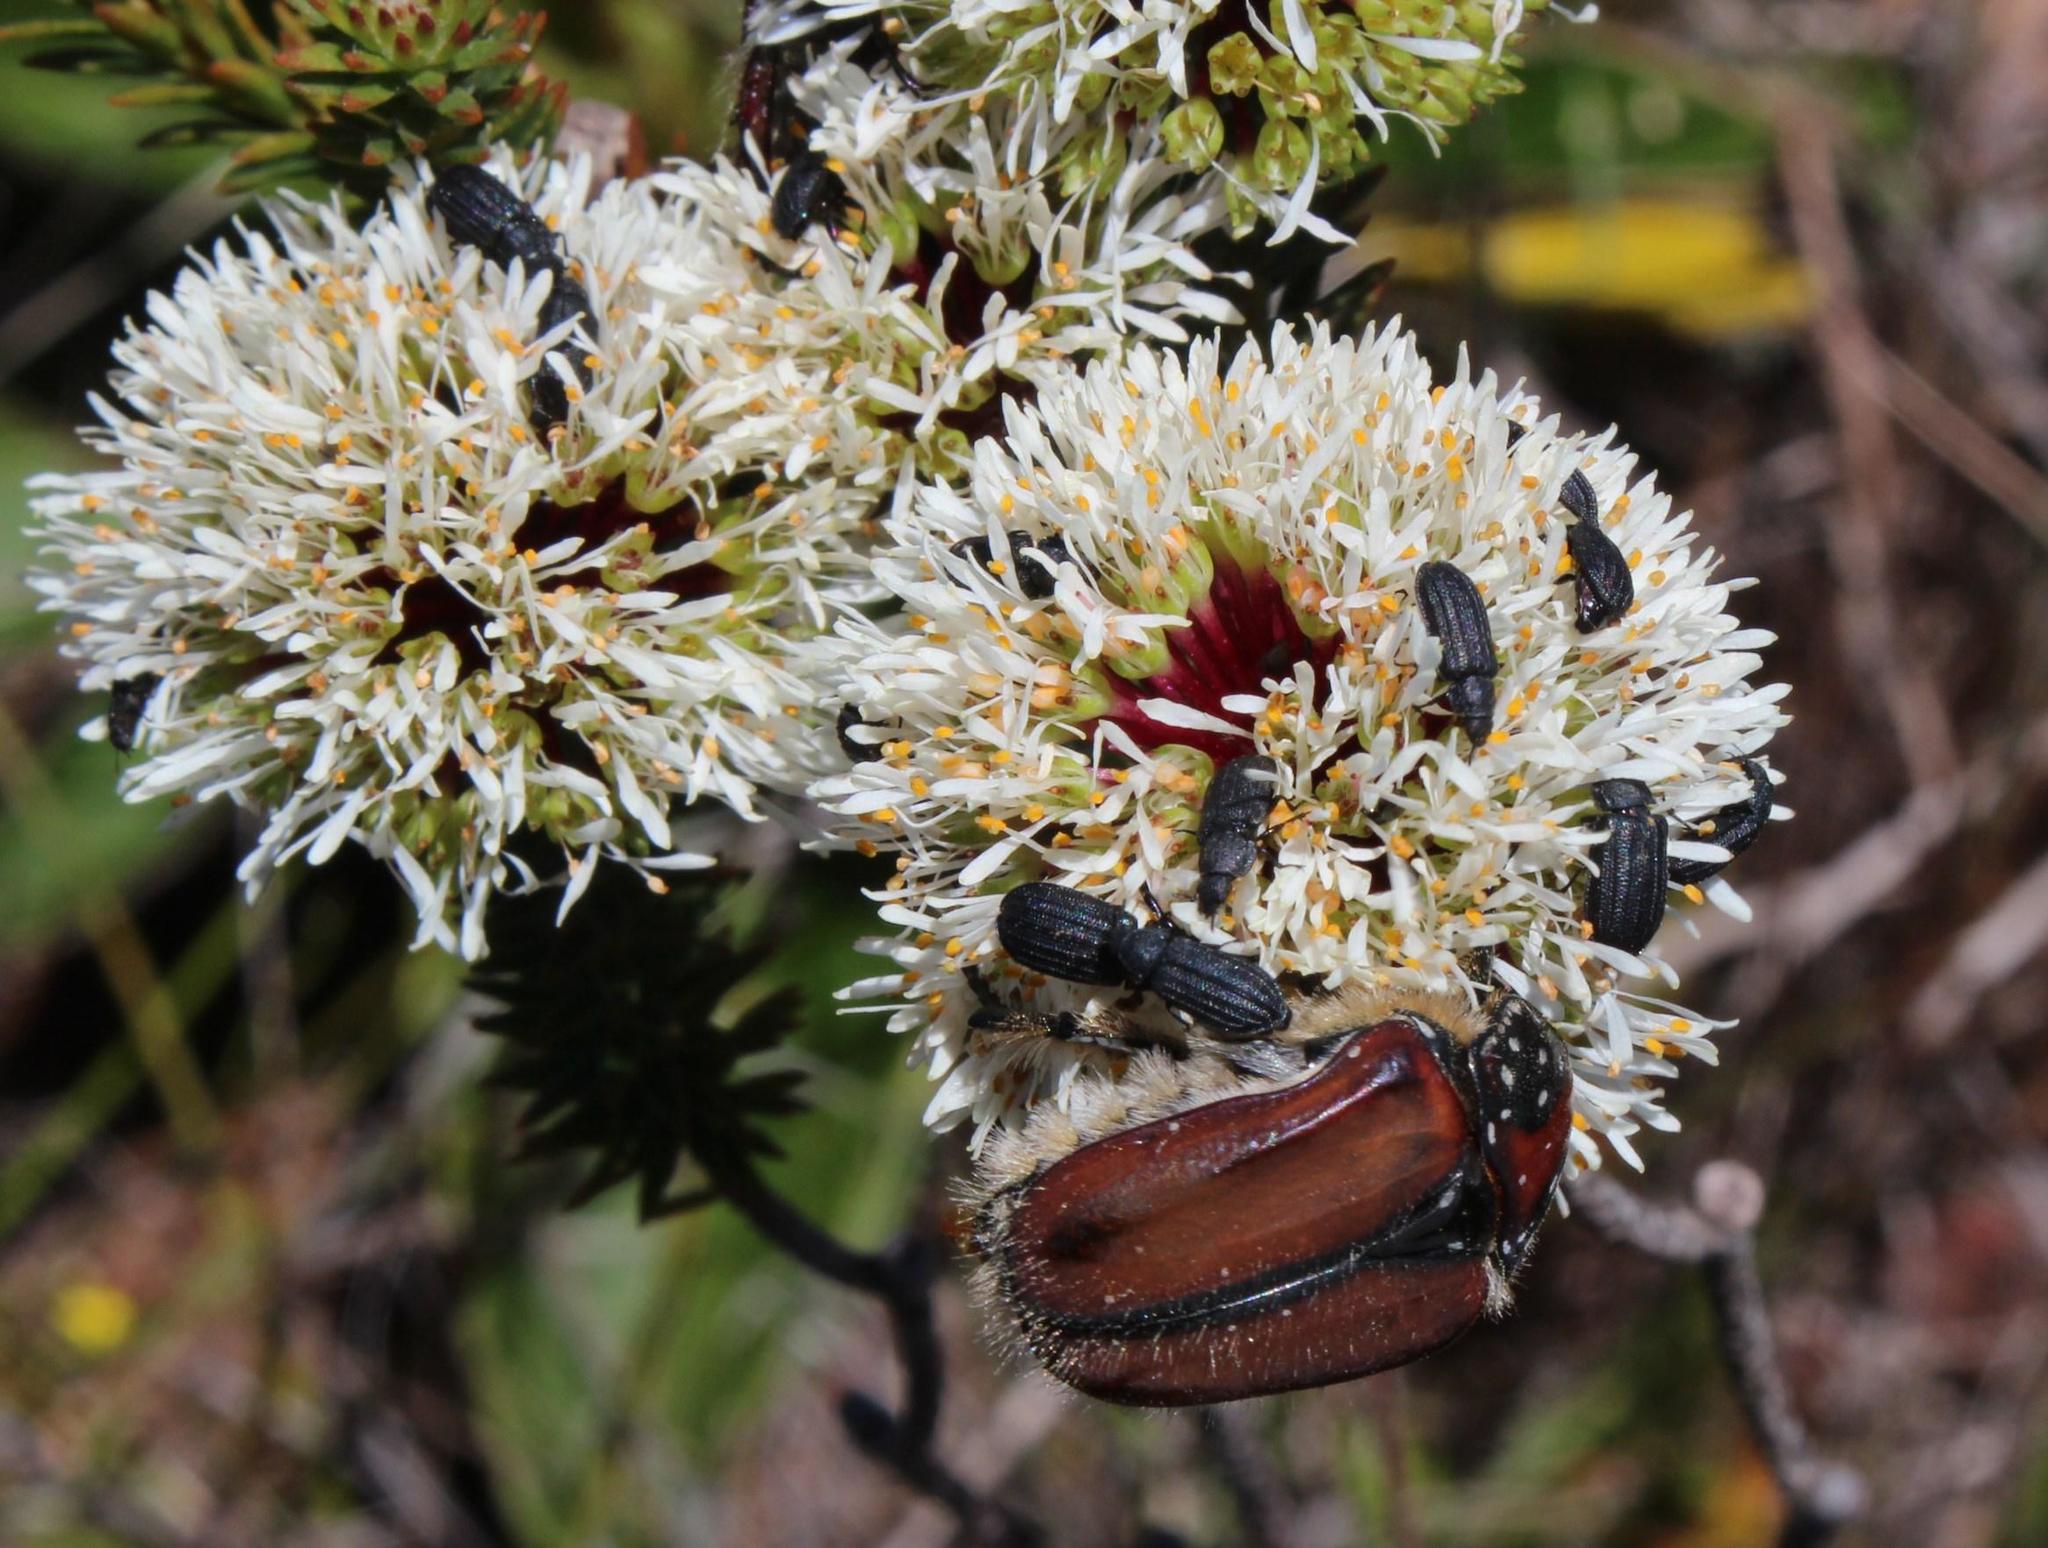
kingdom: Plantae
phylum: Tracheophyta
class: Magnoliopsida
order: Sapindales
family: Rutaceae
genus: Agathosma
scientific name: Agathosma bifida
